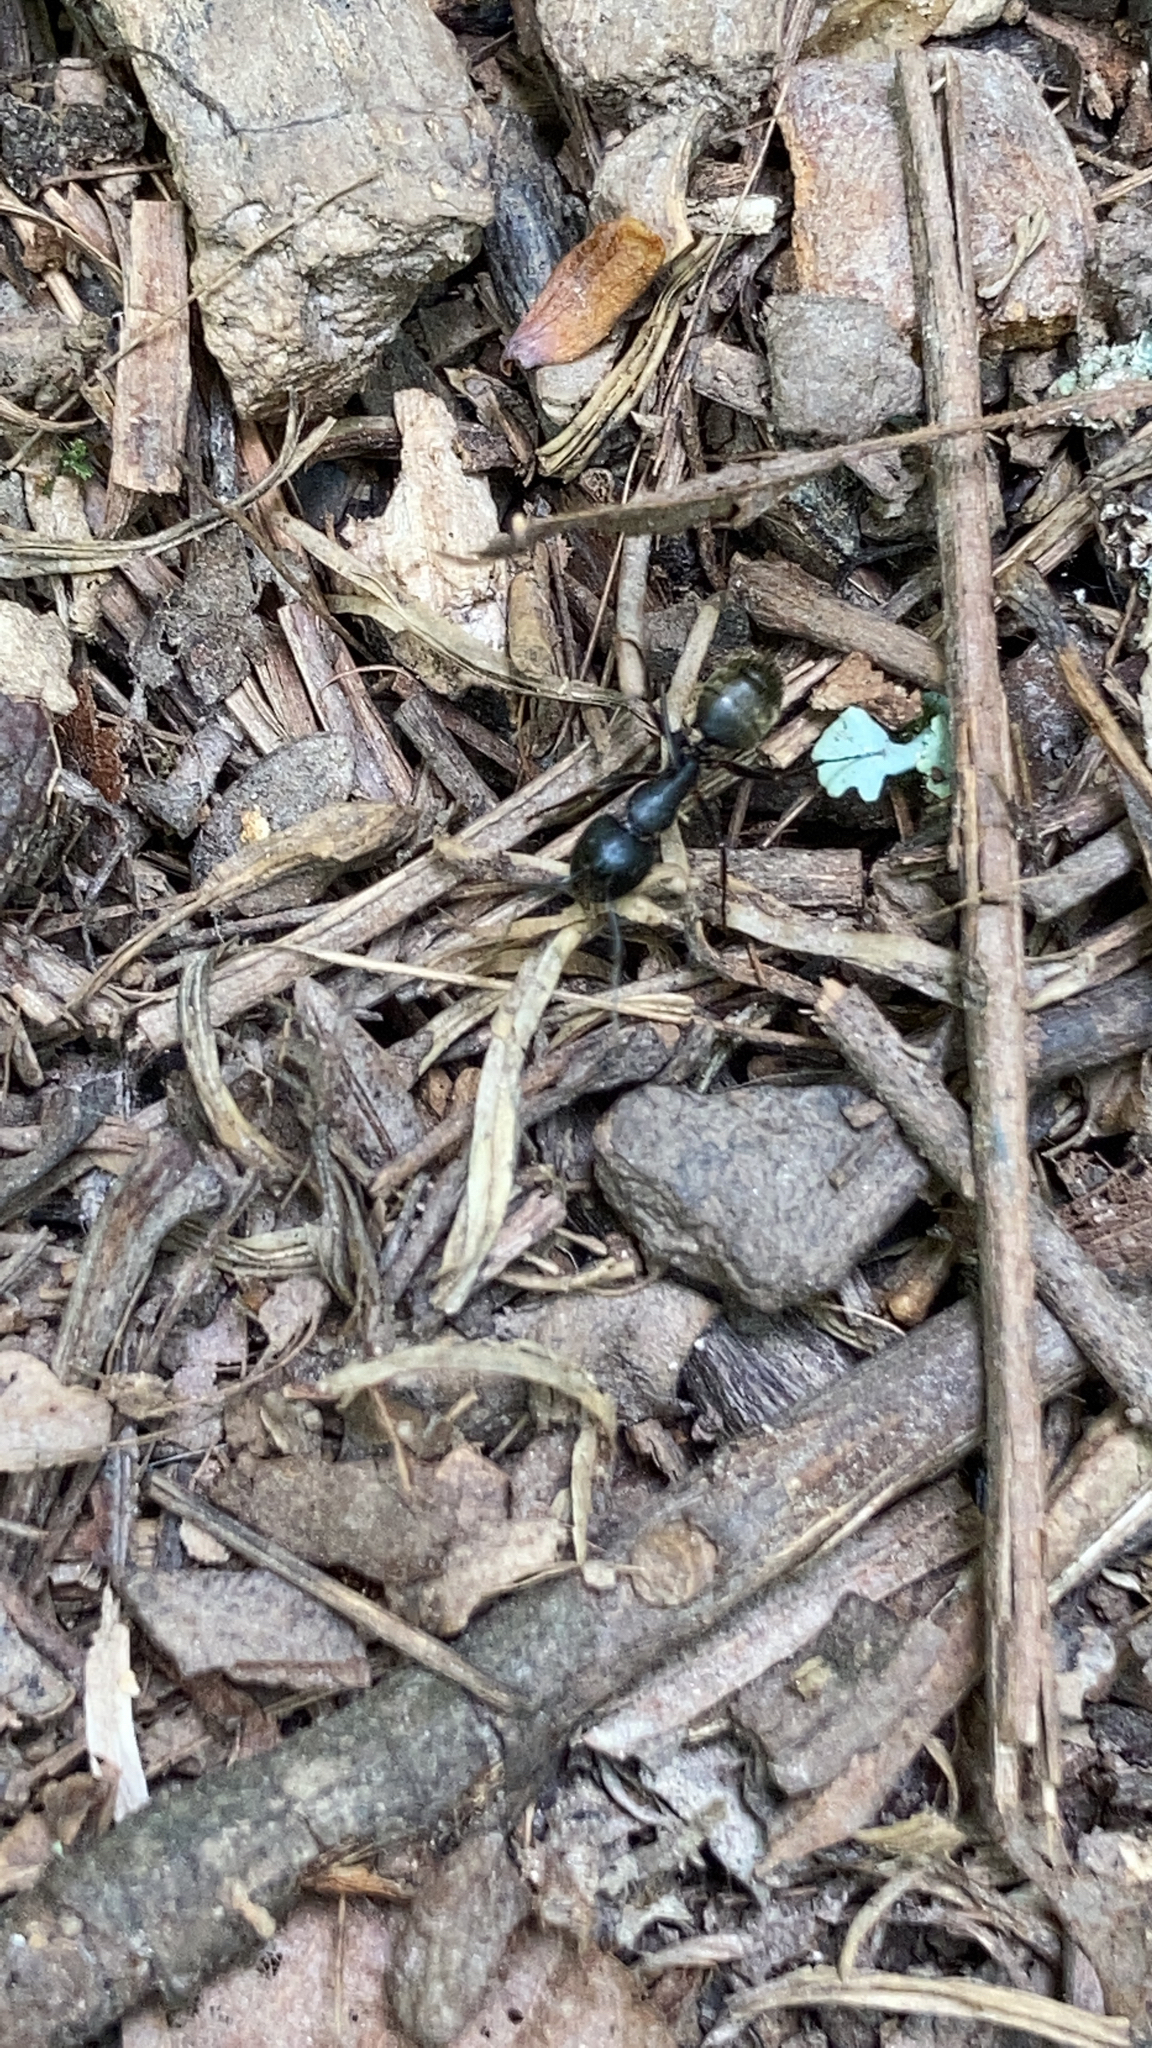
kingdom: Animalia
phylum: Arthropoda
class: Insecta
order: Hymenoptera
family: Formicidae
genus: Camponotus
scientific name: Camponotus pennsylvanicus
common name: Black carpenter ant
